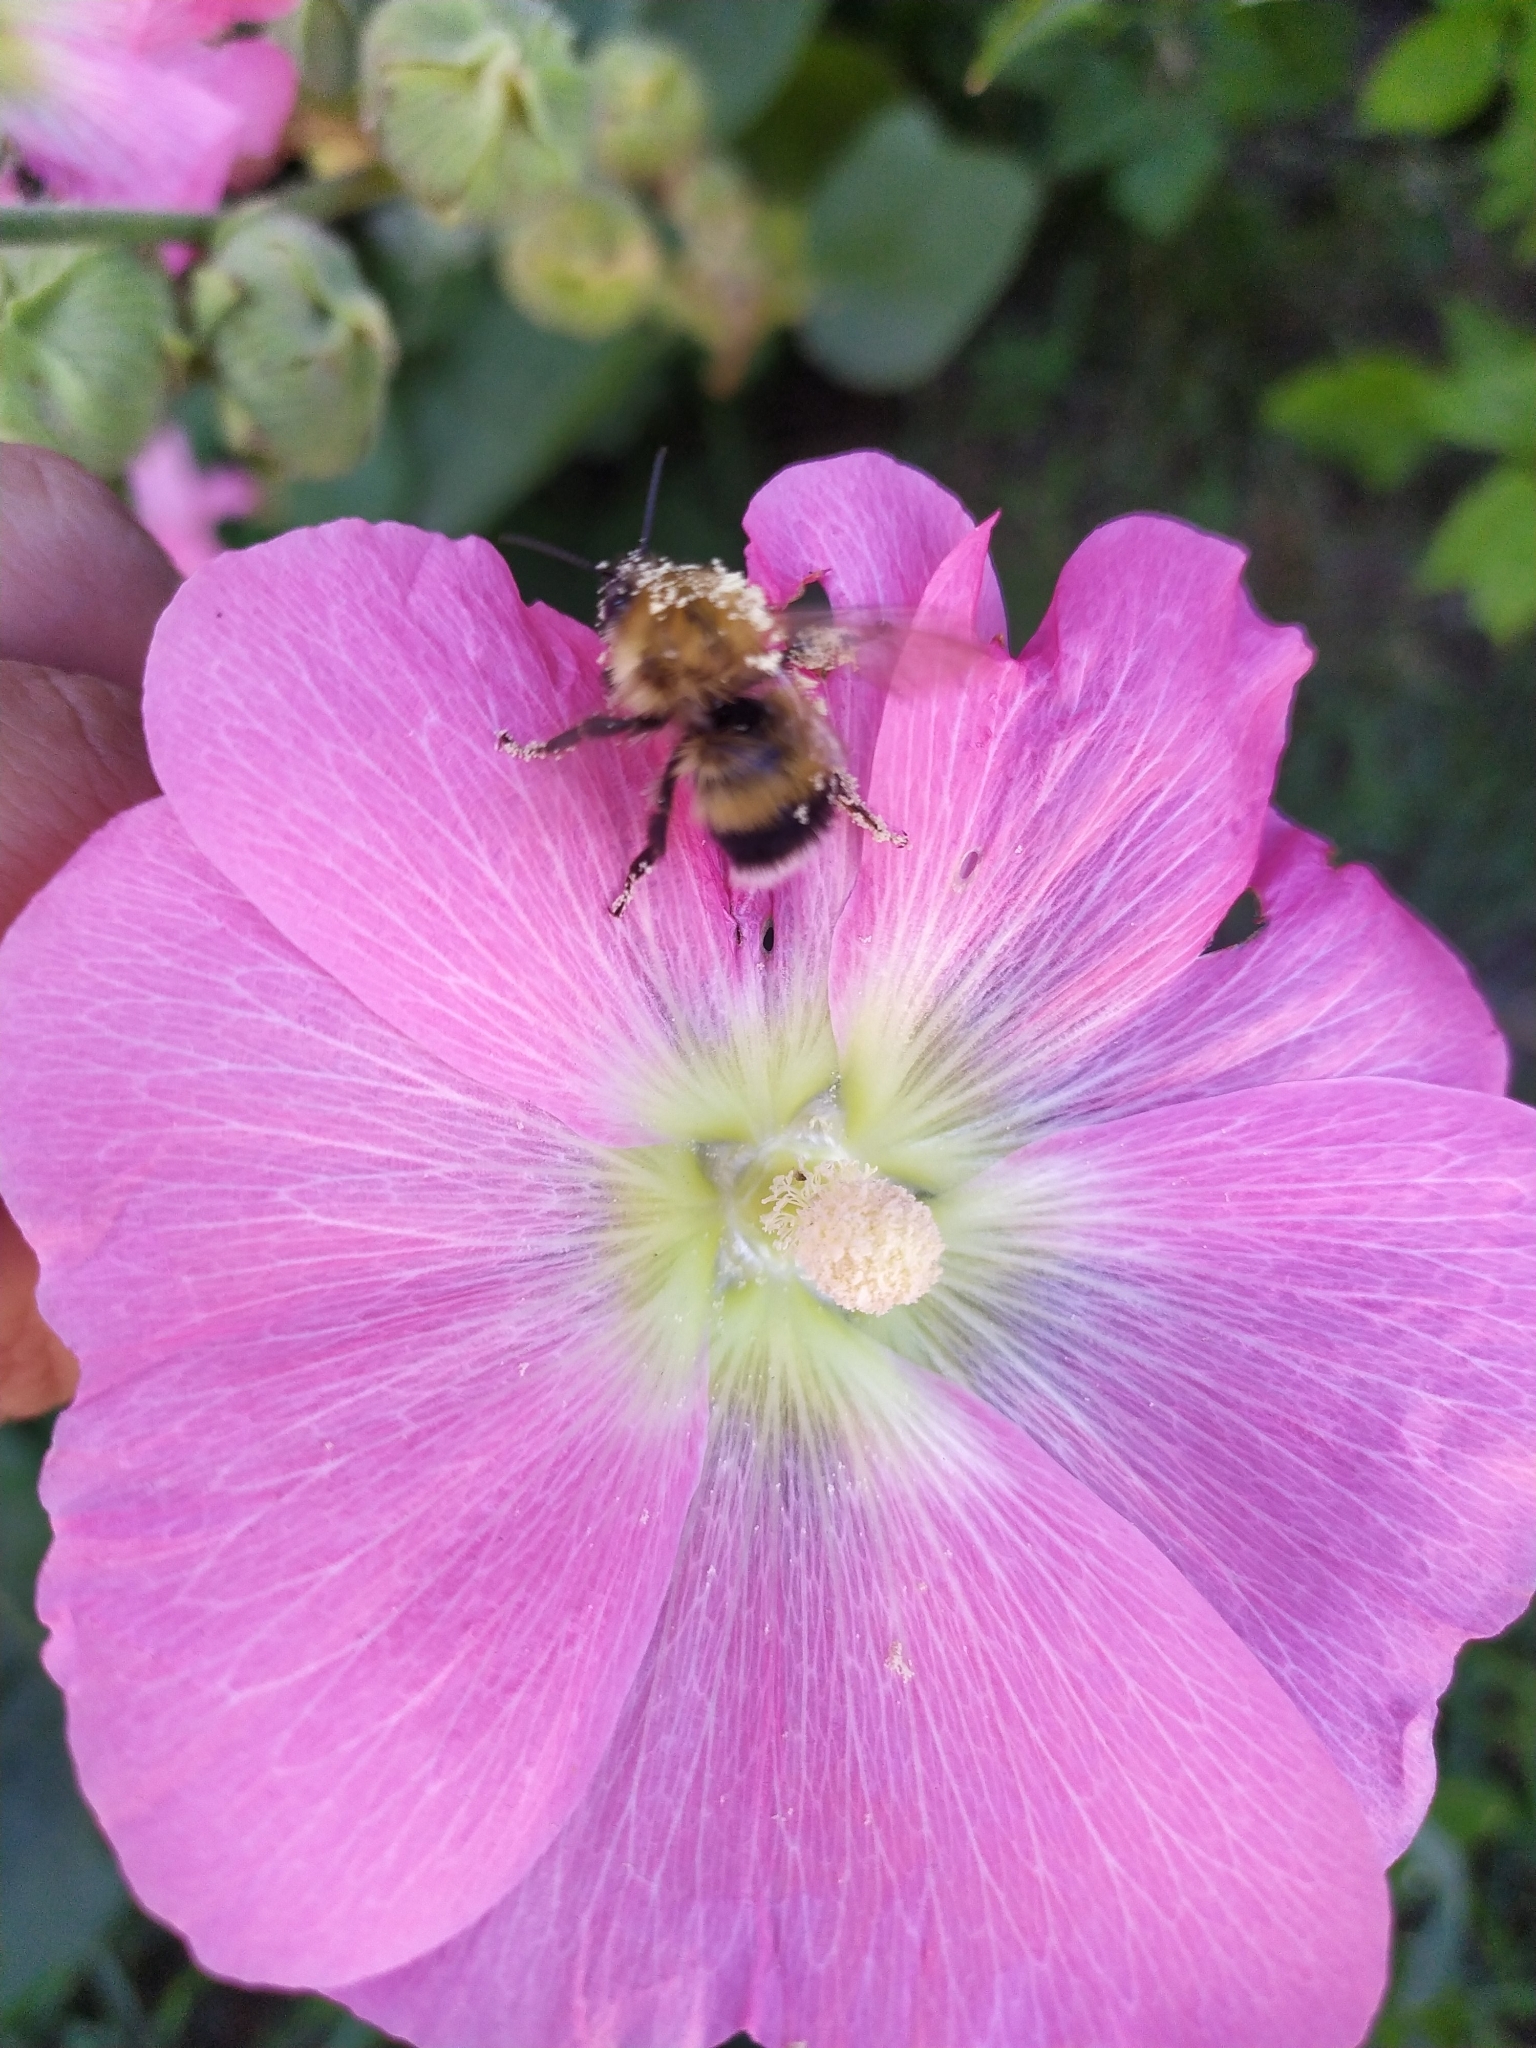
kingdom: Animalia
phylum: Arthropoda
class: Insecta
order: Hymenoptera
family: Apidae
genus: Bombus
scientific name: Bombus hypnorum
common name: New garden bumblebee
